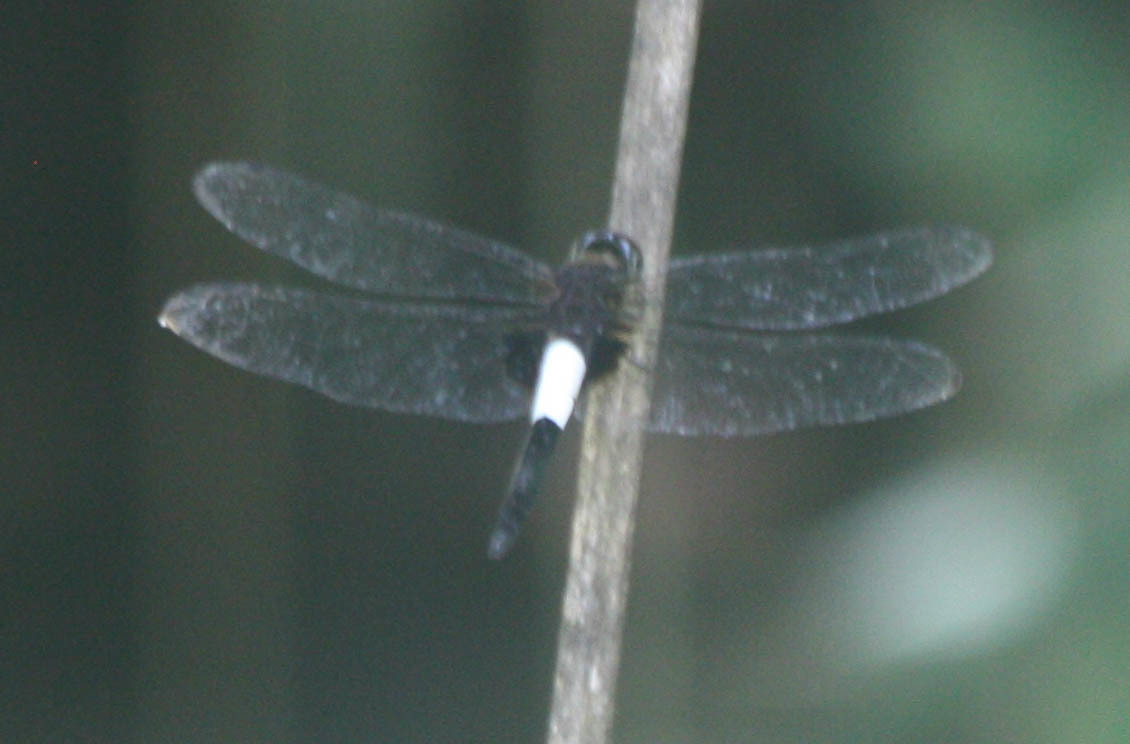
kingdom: Animalia
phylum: Arthropoda
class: Insecta
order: Odonata
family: Libellulidae
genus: Pseudothemis
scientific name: Pseudothemis zonata
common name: Pied skimmer
